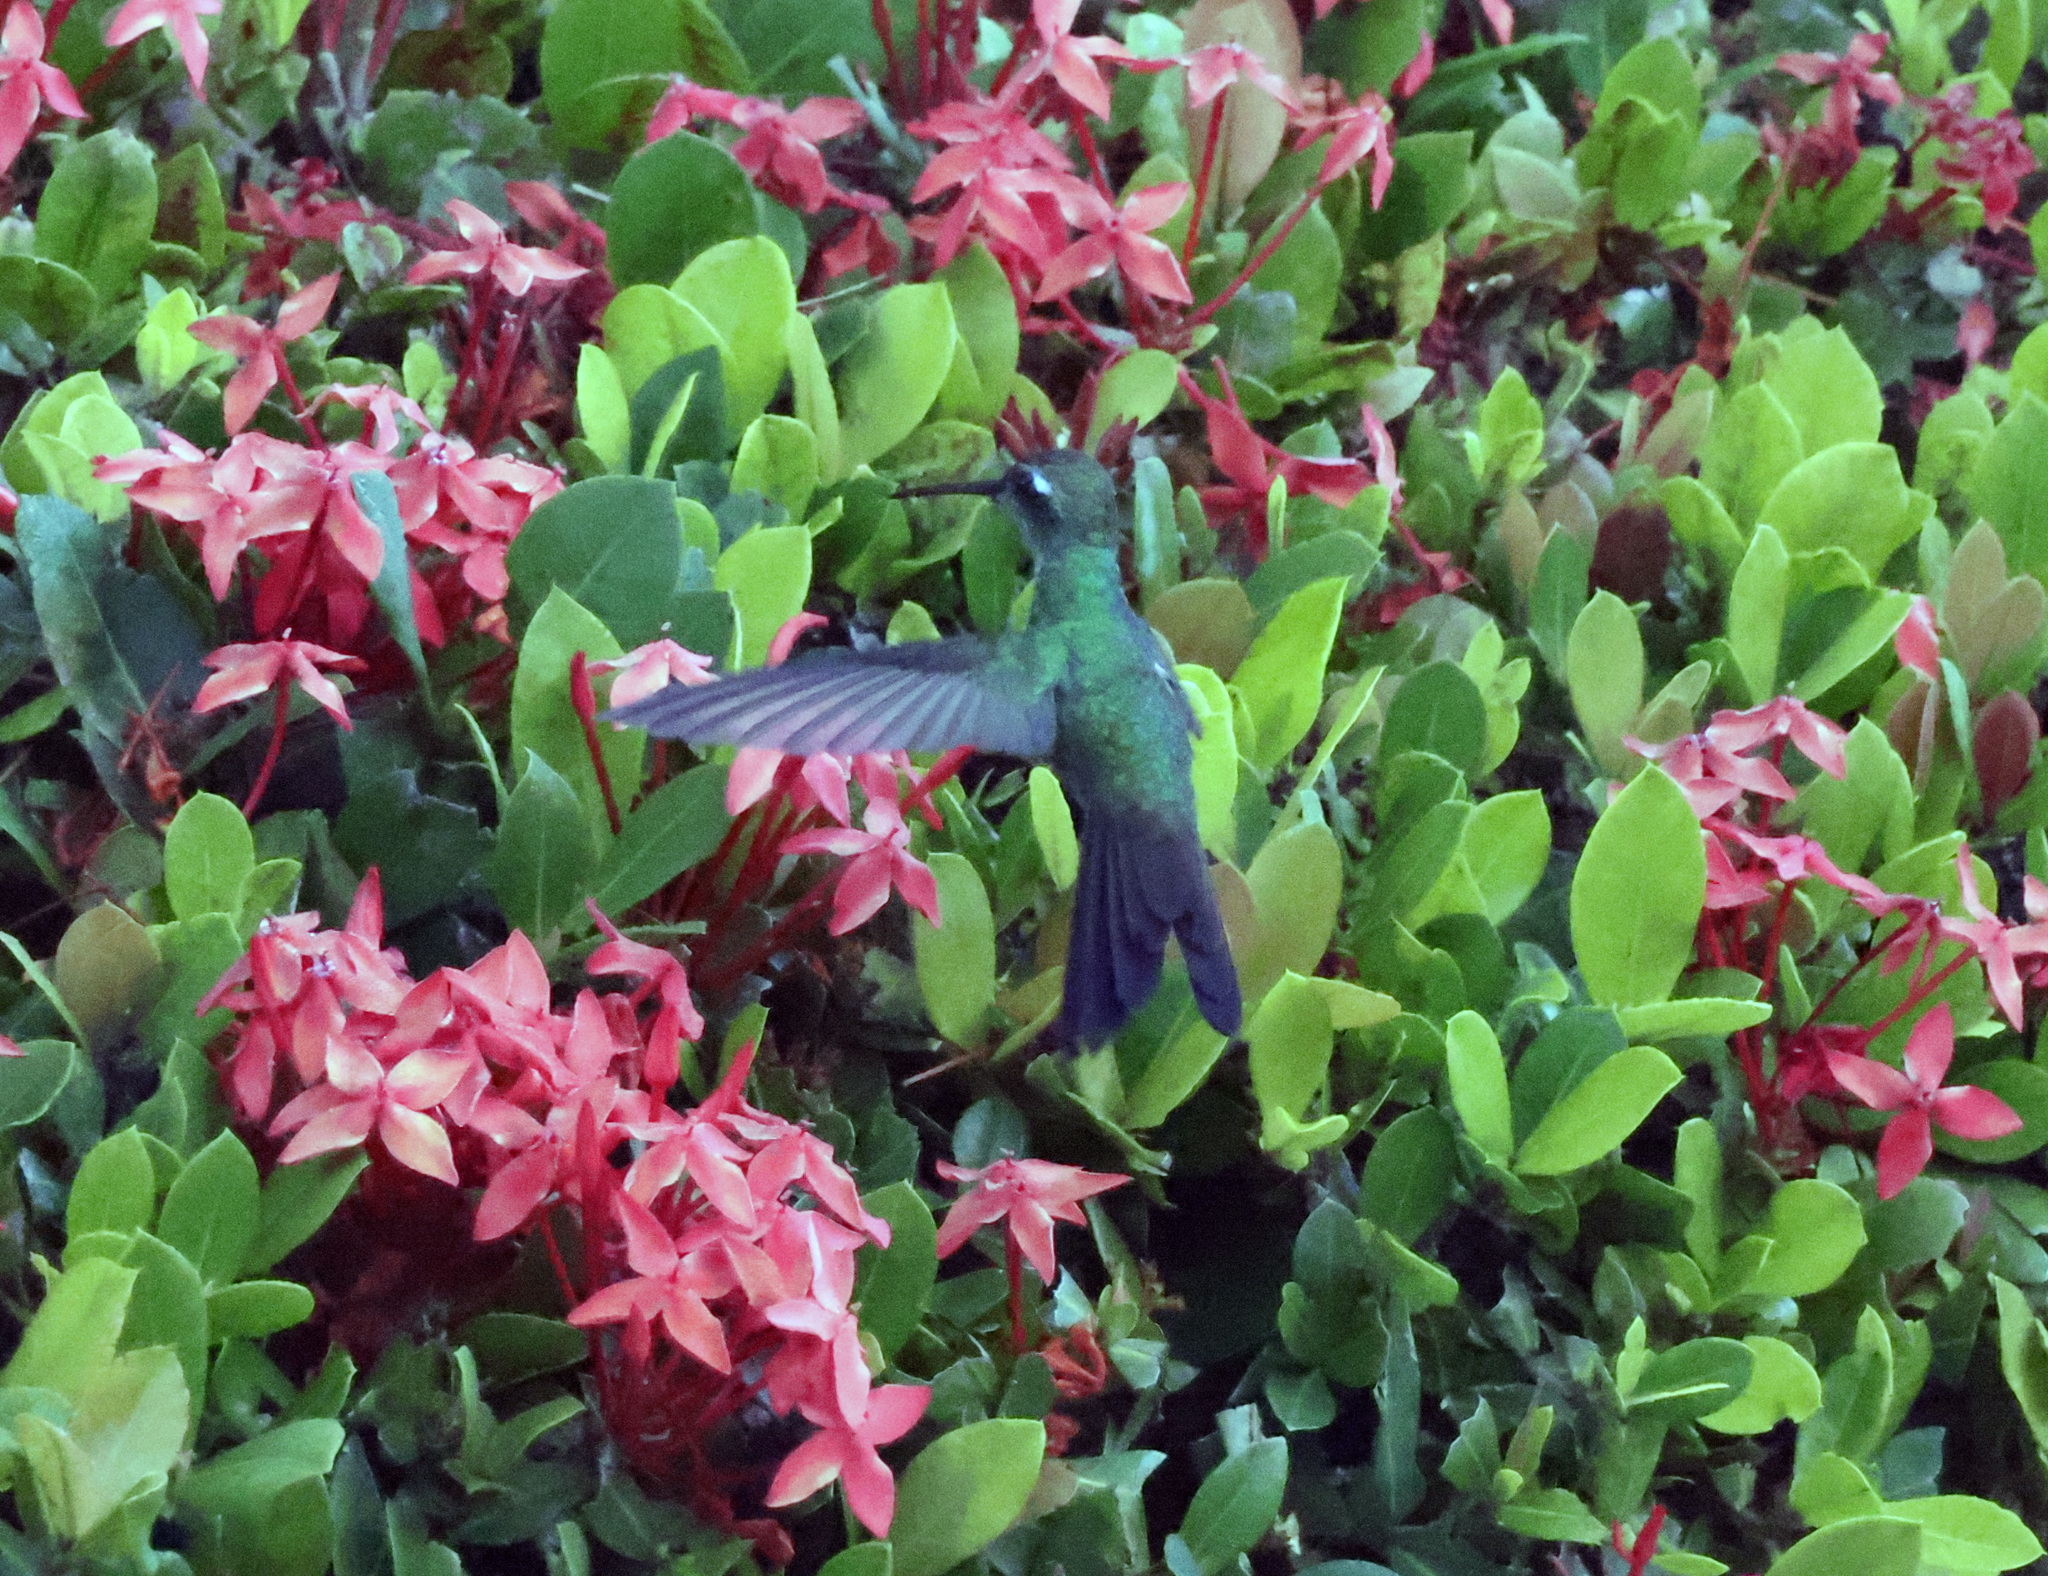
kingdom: Animalia
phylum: Chordata
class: Aves
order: Apodiformes
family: Trochilidae
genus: Riccordia
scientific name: Riccordia ricordii
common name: Cuban emerald
